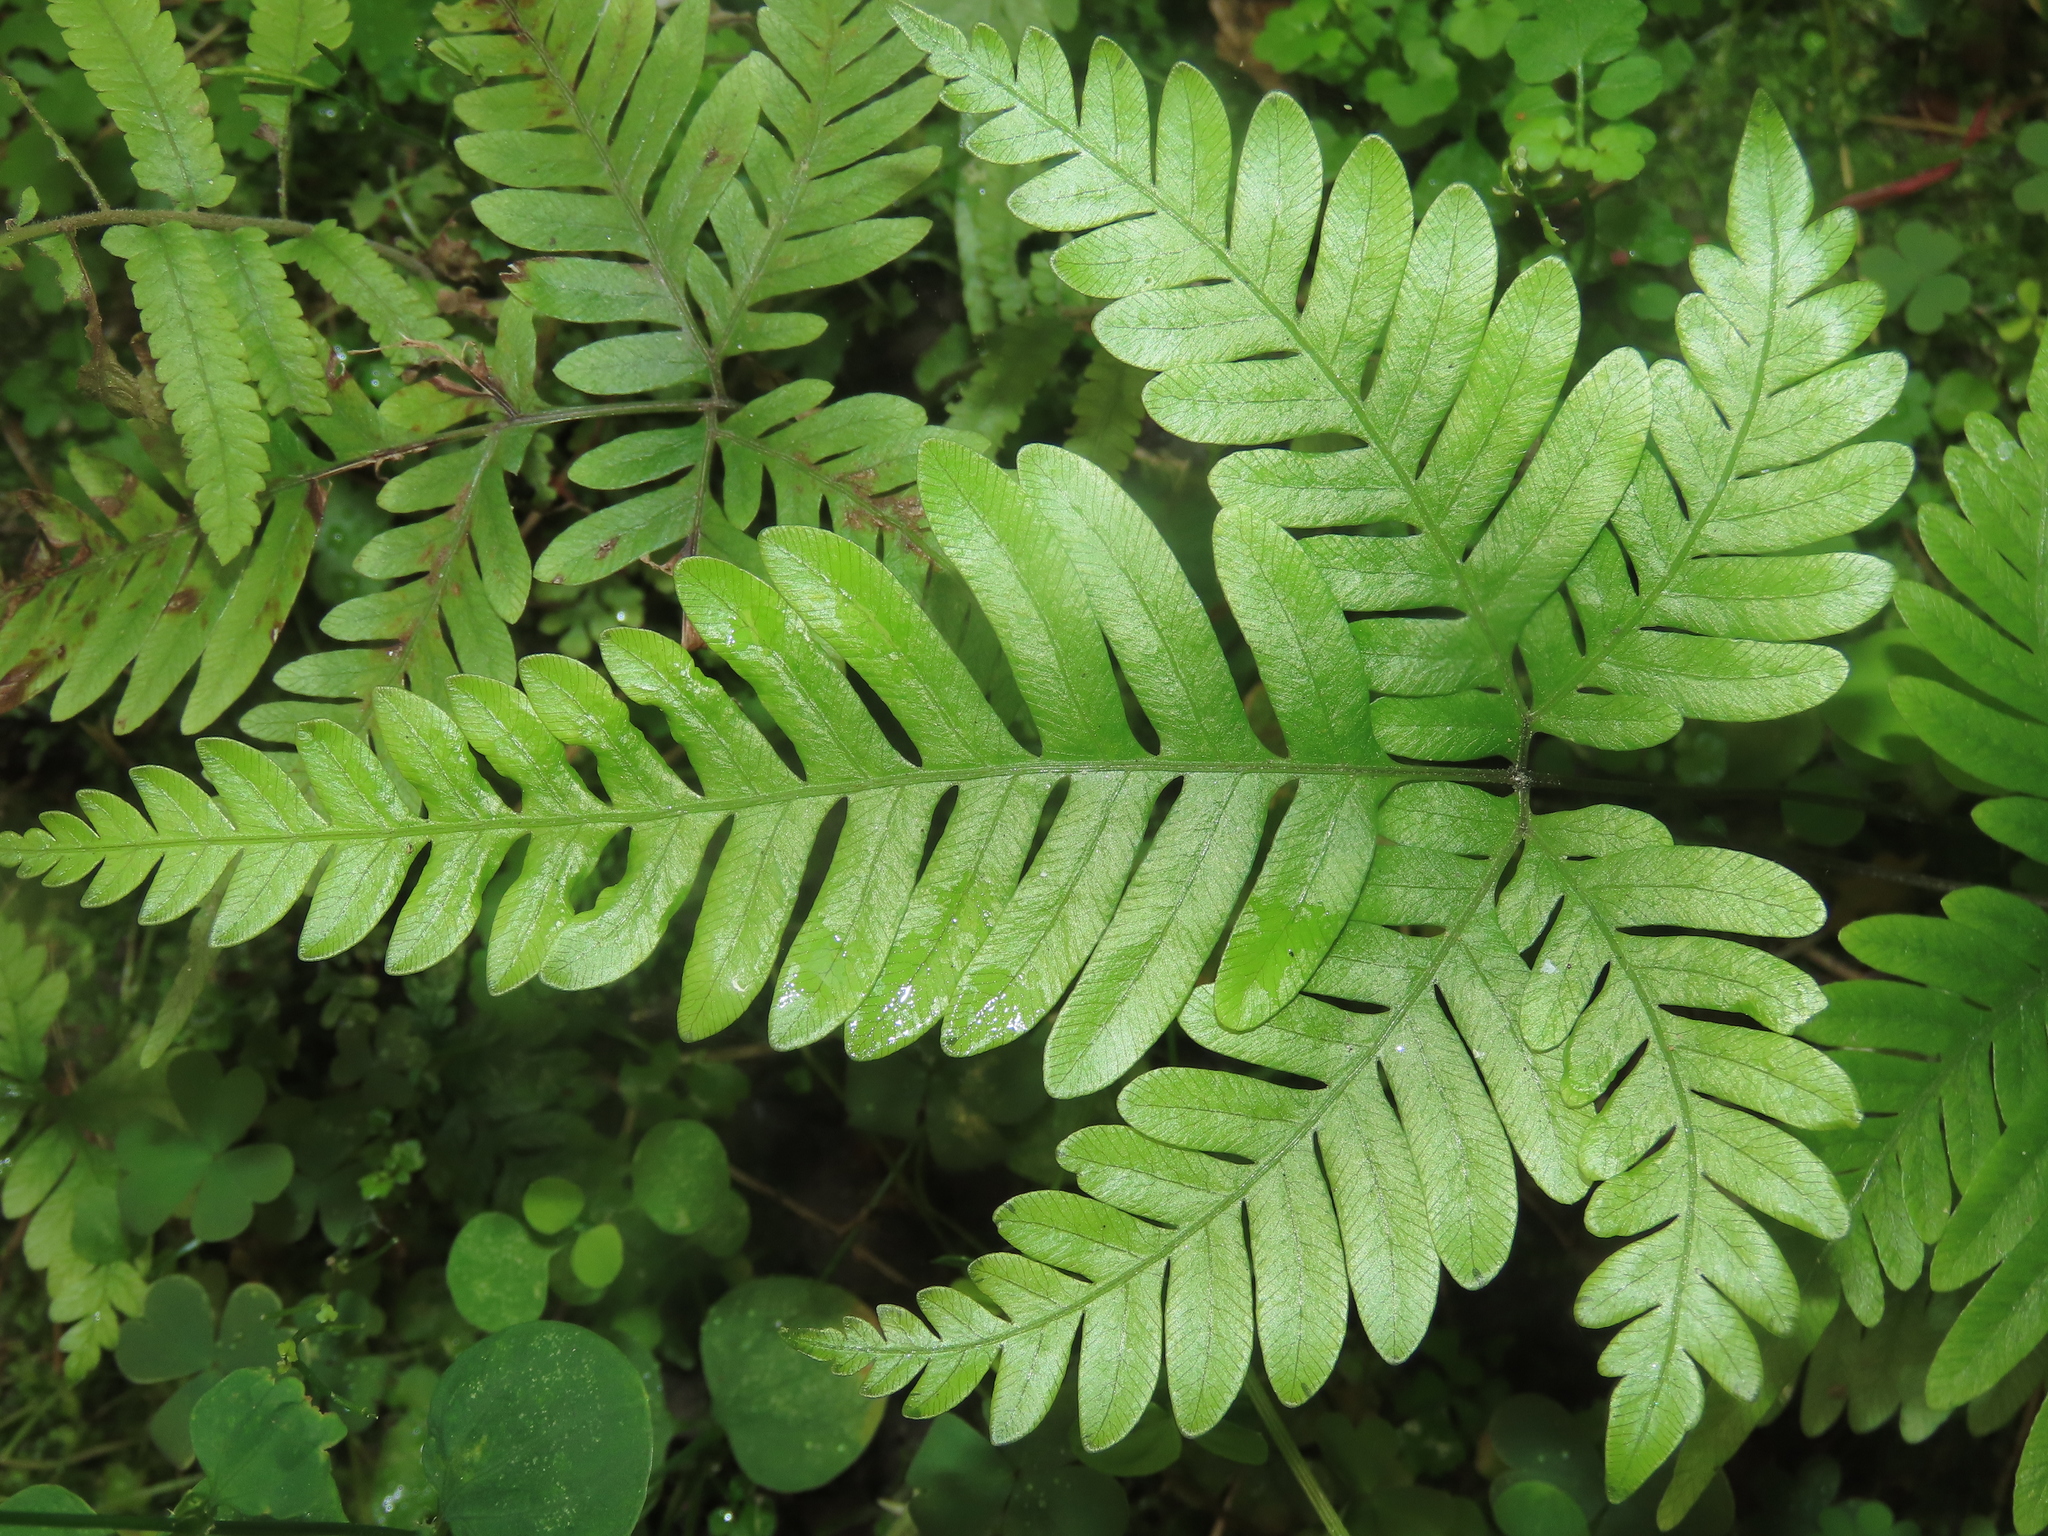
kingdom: Plantae
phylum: Tracheophyta
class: Polypodiopsida
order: Polypodiales
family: Pteridaceae
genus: Pteris
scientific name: Pteris fauriei
